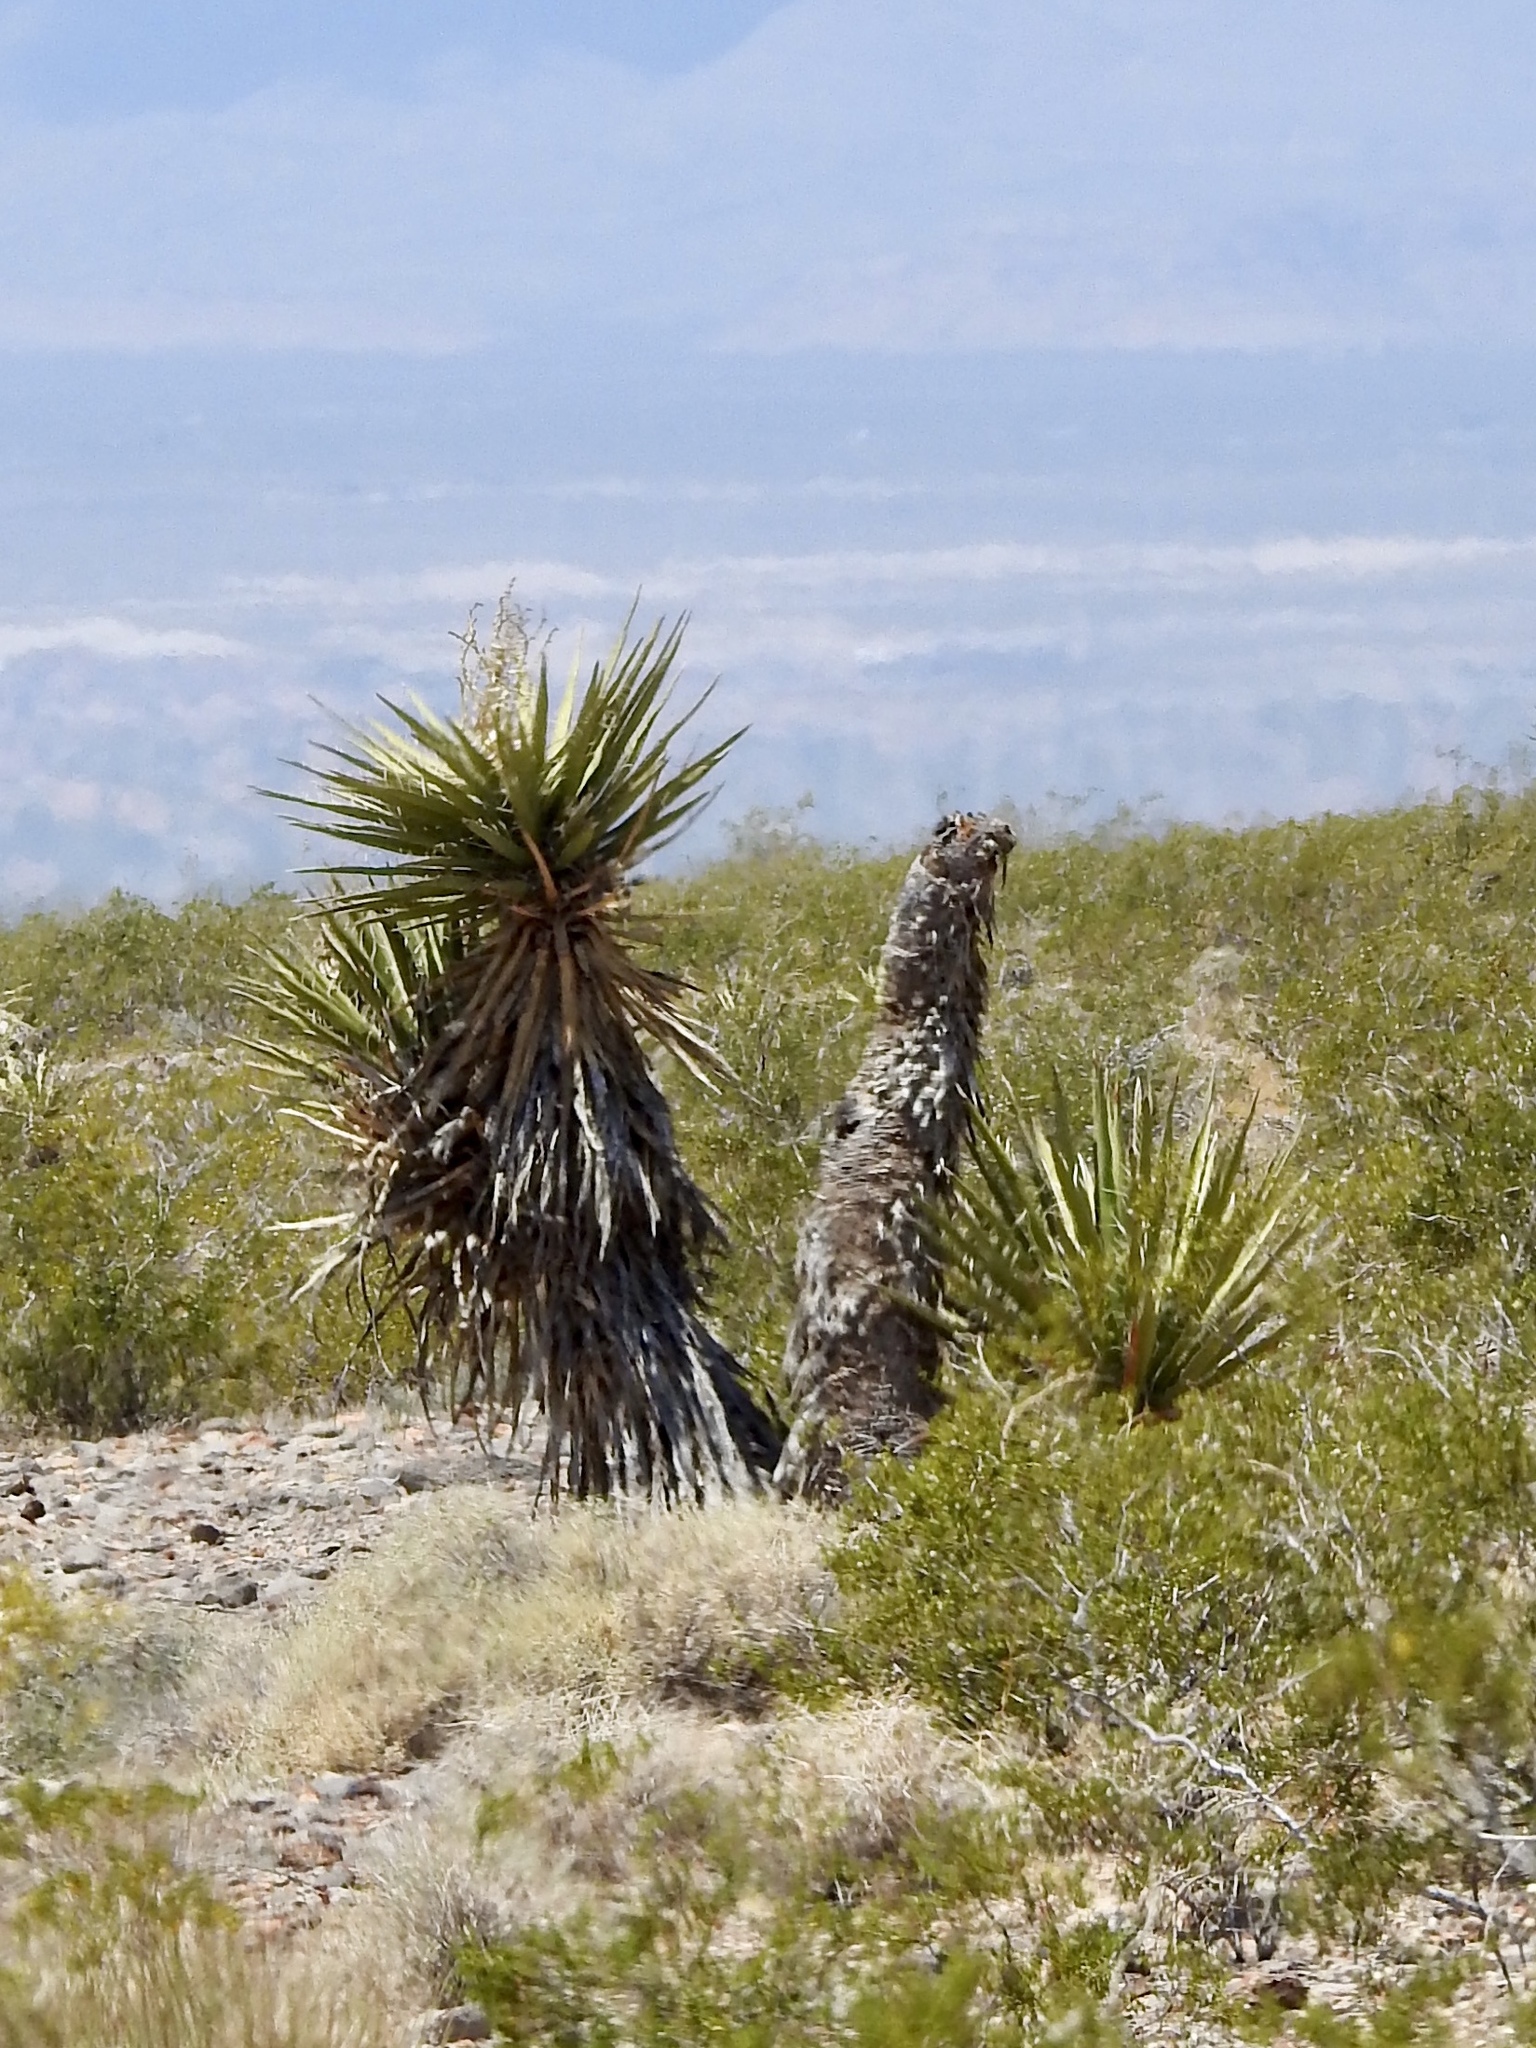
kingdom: Plantae
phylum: Tracheophyta
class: Liliopsida
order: Asparagales
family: Asparagaceae
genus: Yucca
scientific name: Yucca schidigera
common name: Mojave yucca
